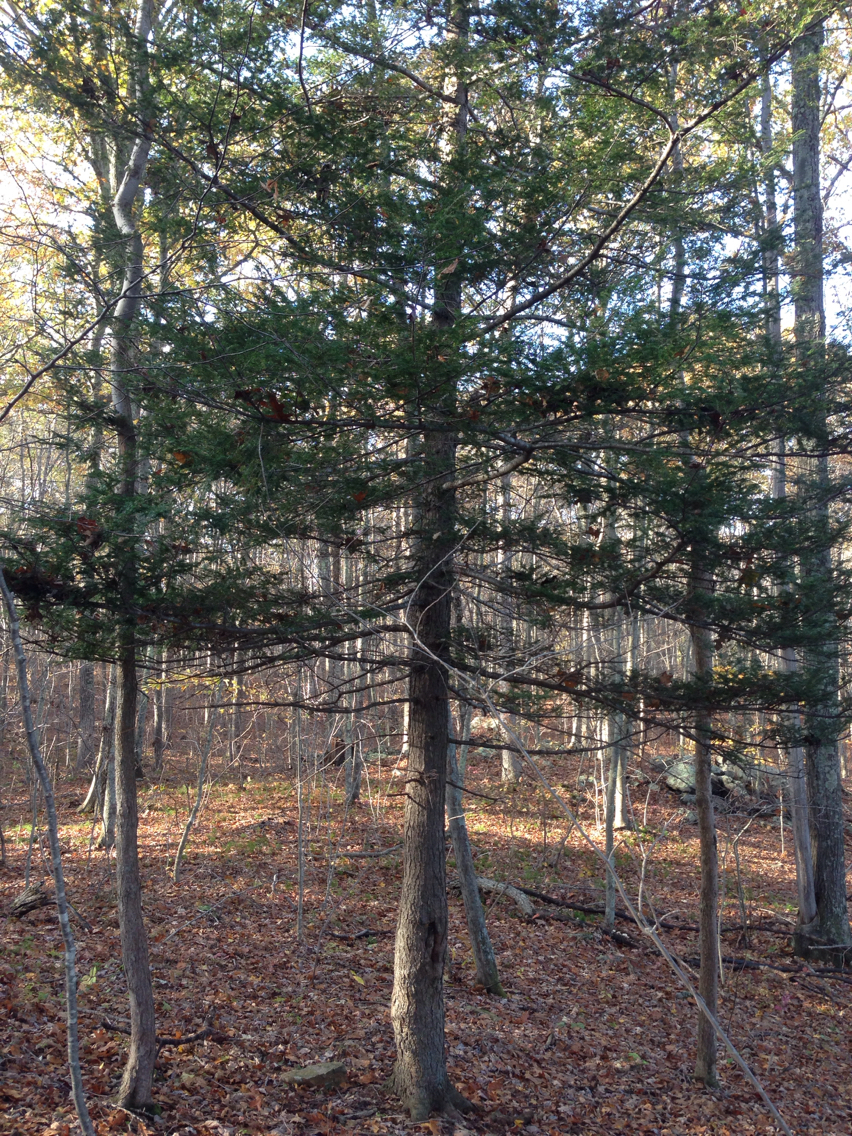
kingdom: Plantae
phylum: Tracheophyta
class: Pinopsida
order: Pinales
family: Pinaceae
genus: Tsuga
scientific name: Tsuga canadensis
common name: Eastern hemlock
